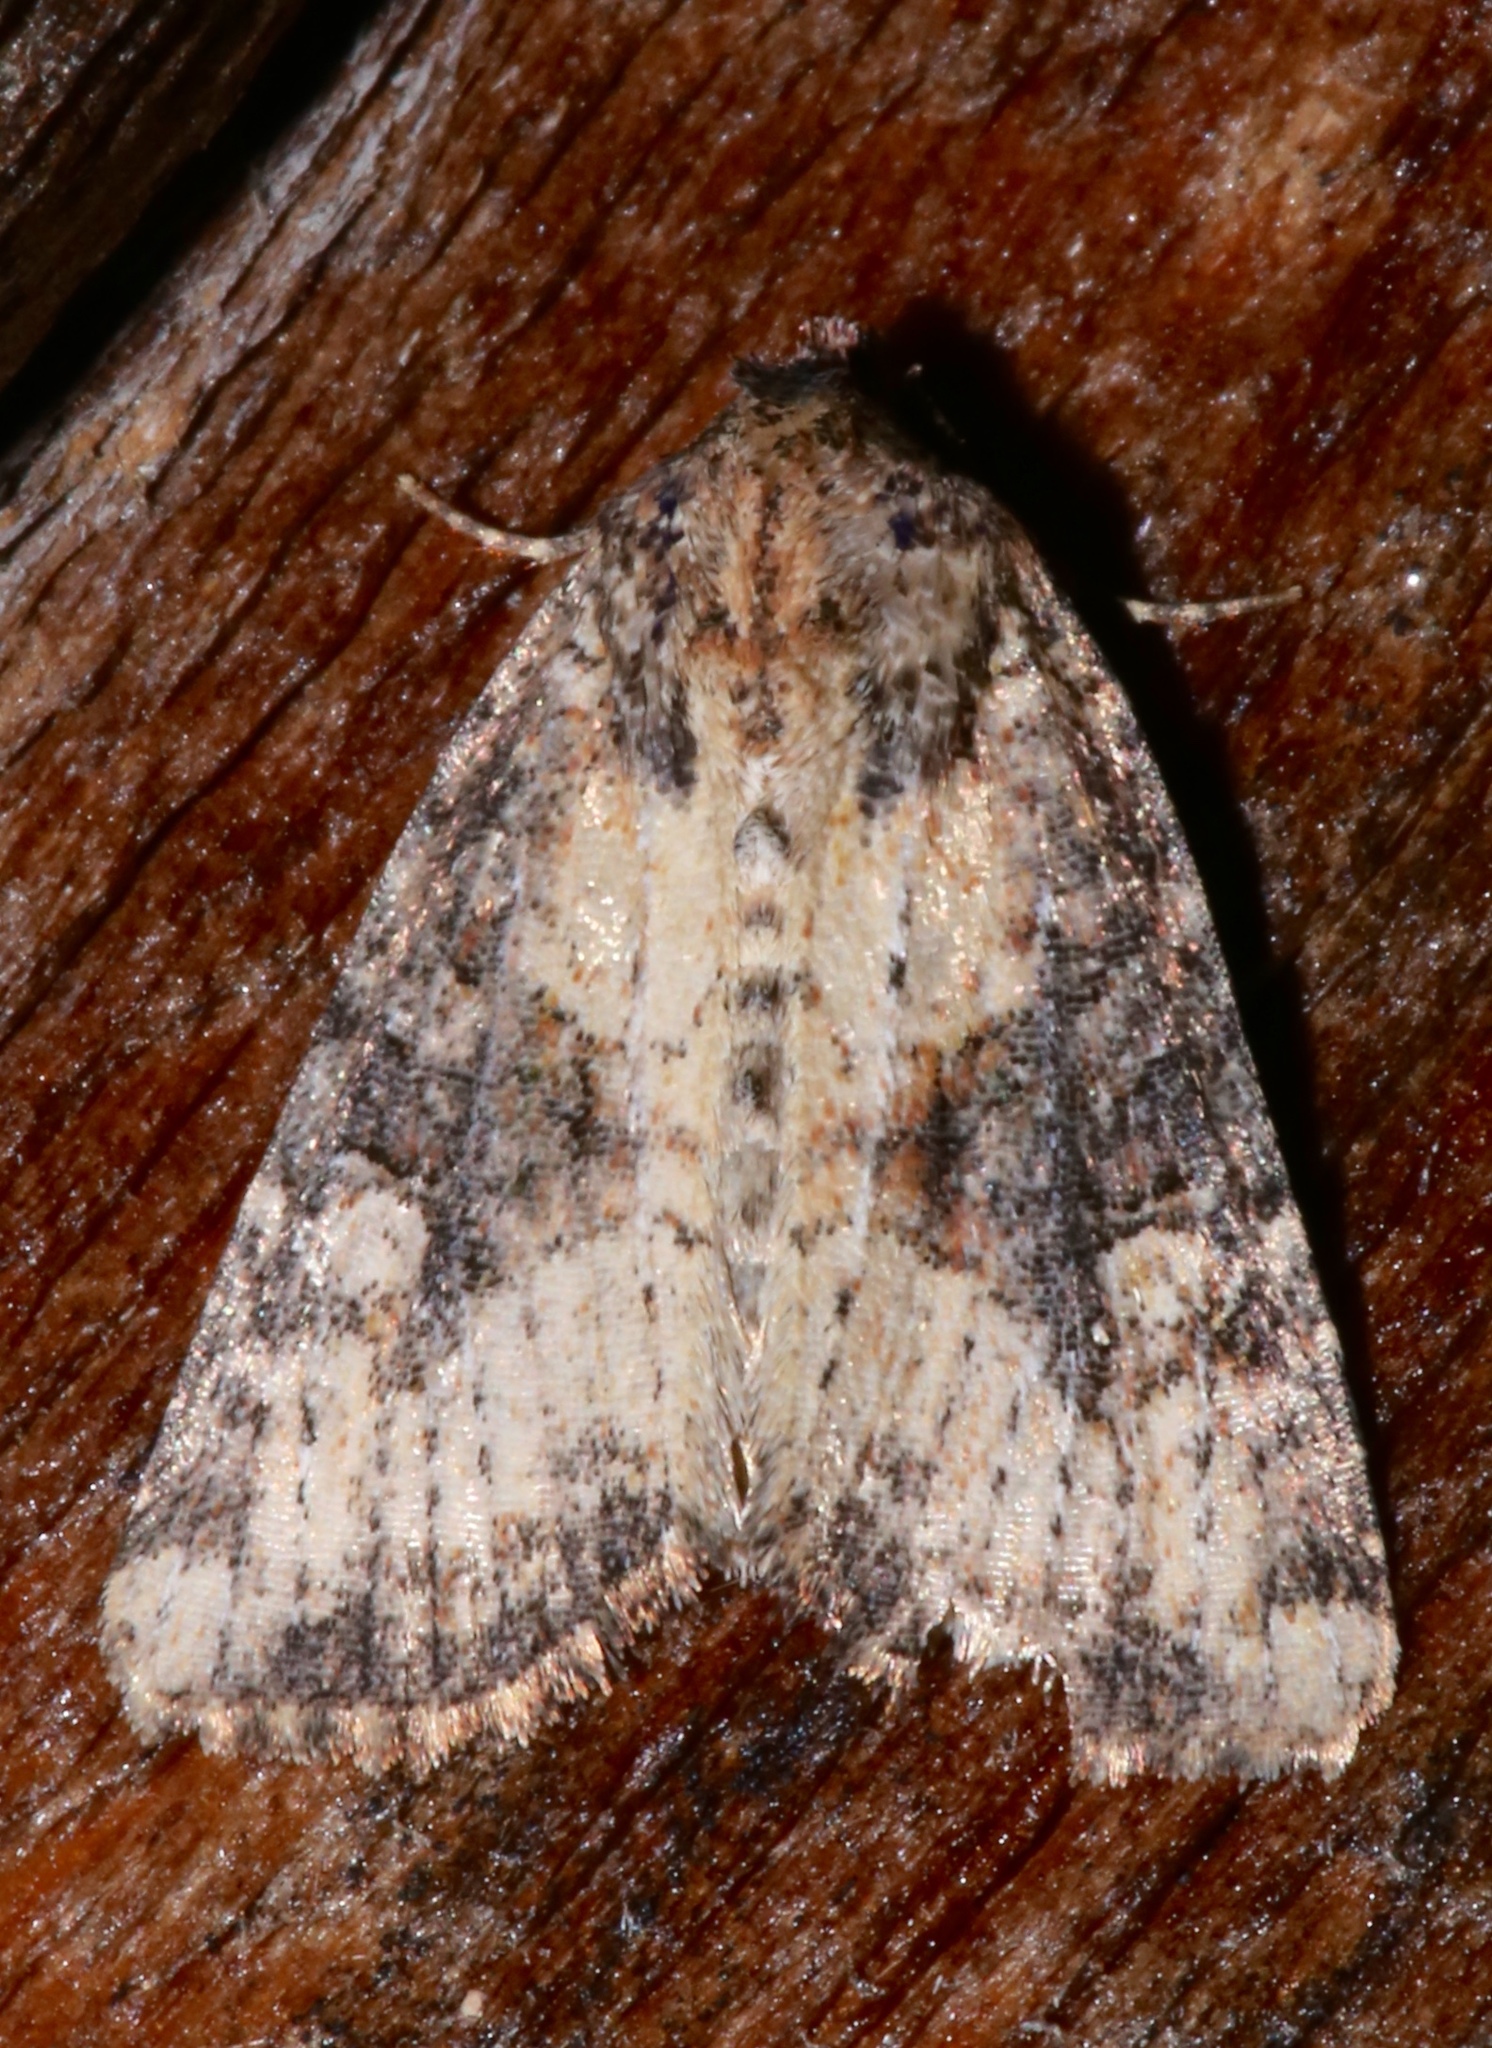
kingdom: Animalia
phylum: Arthropoda
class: Insecta
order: Lepidoptera
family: Noctuidae
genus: Mesapamea
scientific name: Mesapamea fractilinea
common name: Broken-lined brocade moth
